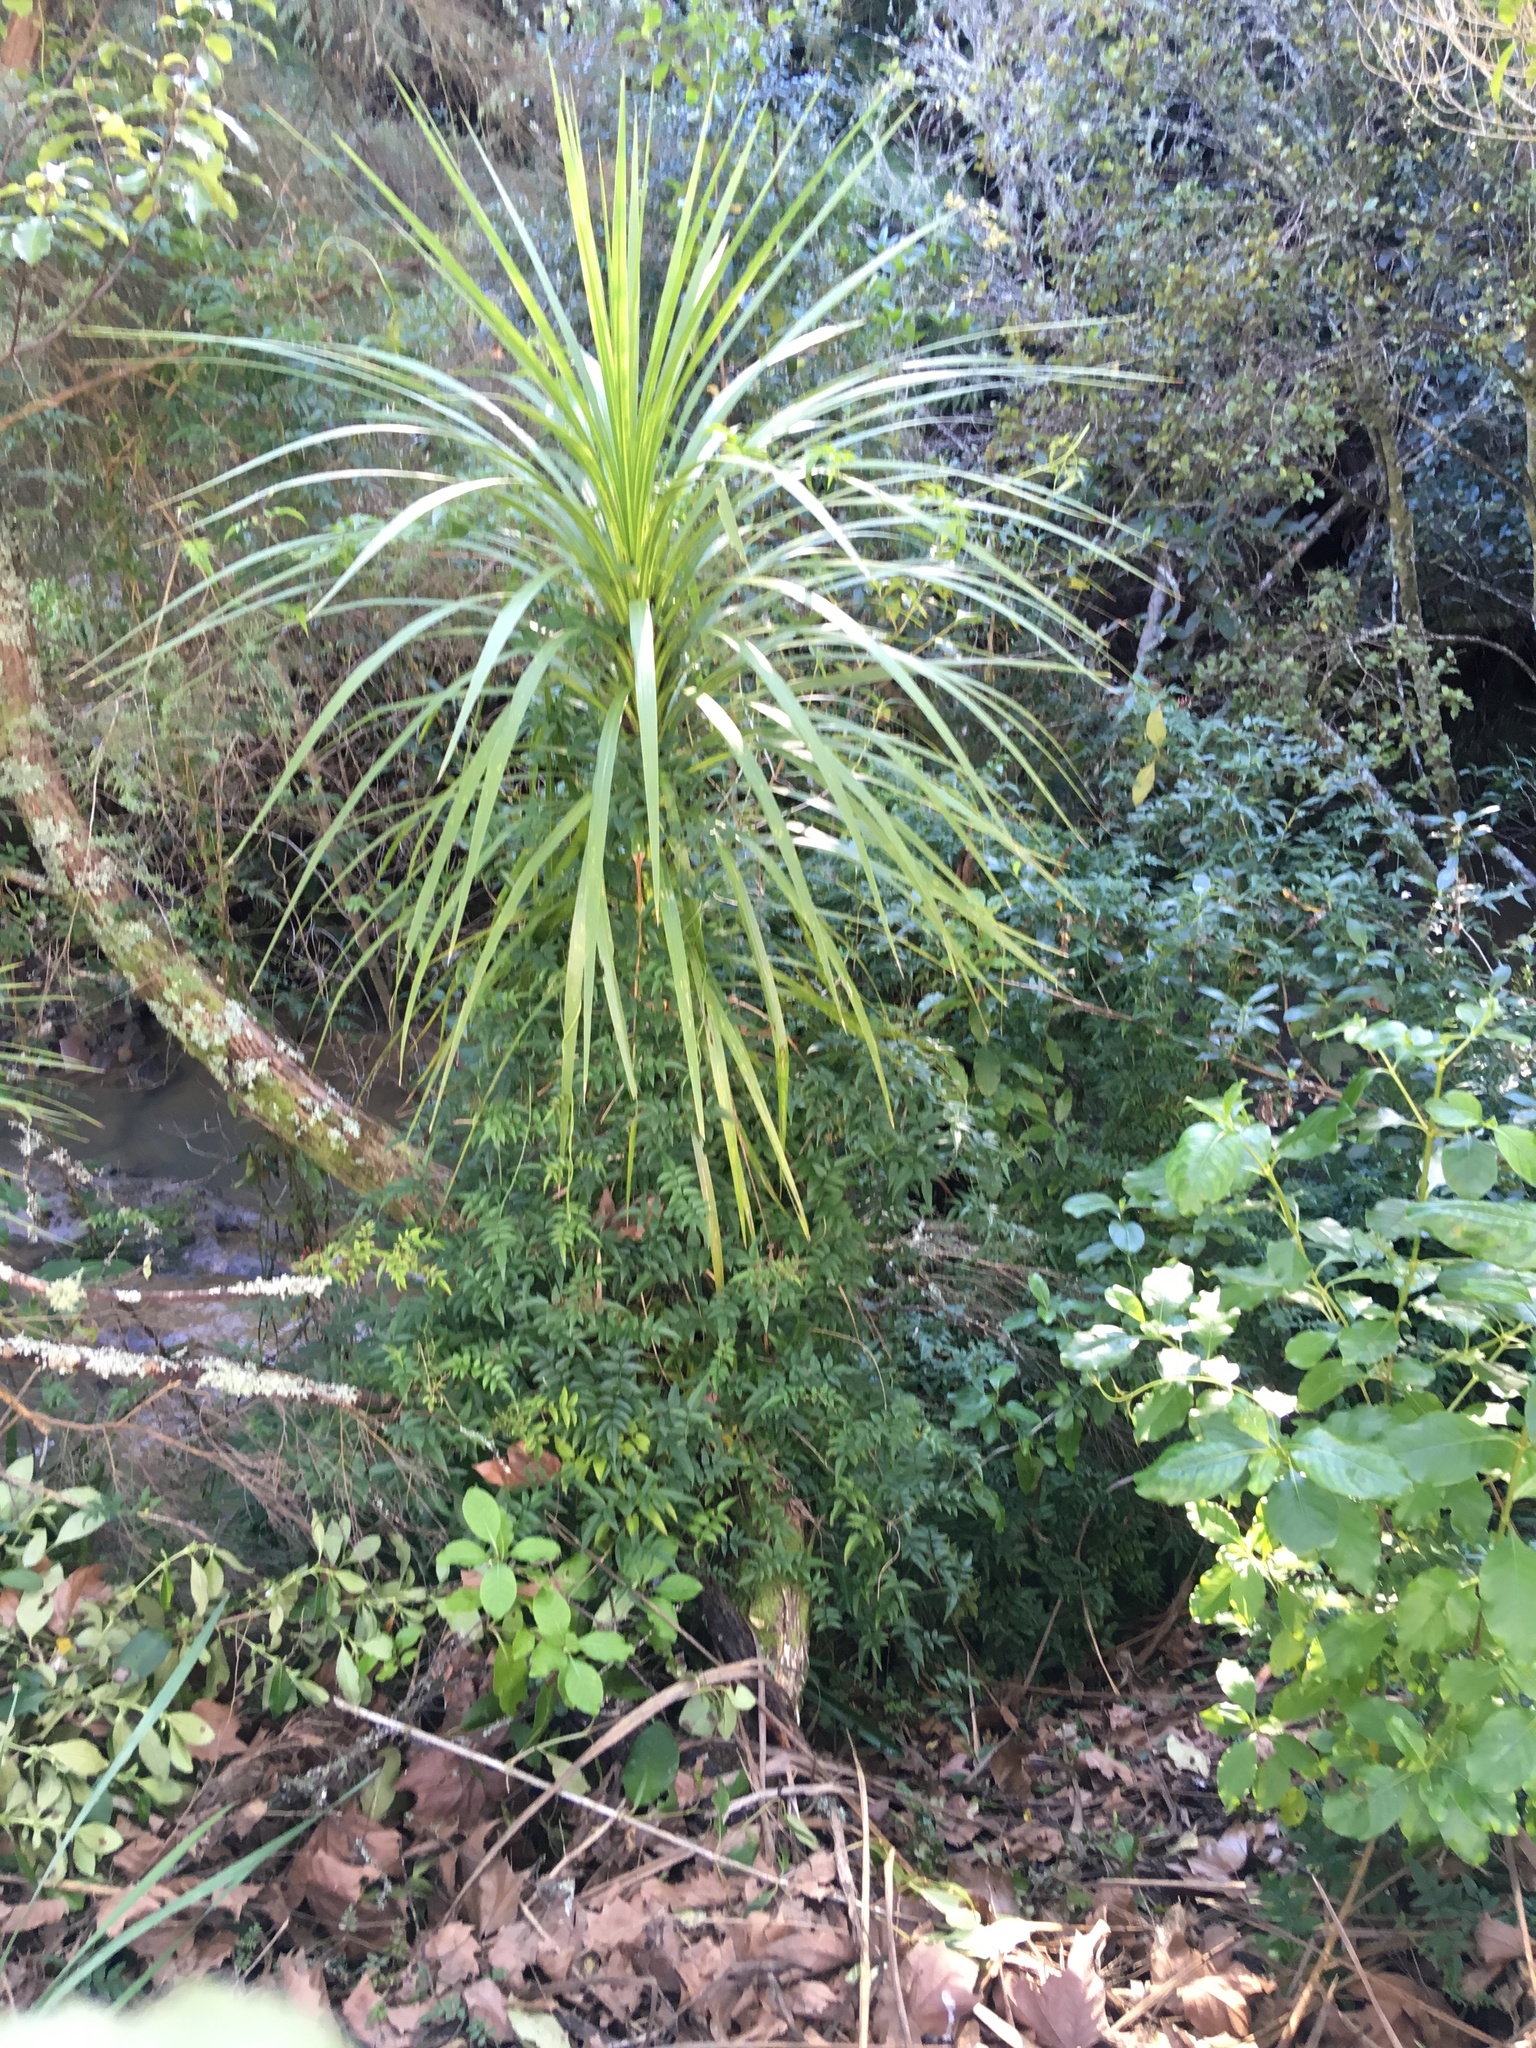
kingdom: Plantae
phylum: Tracheophyta
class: Magnoliopsida
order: Lamiales
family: Oleaceae
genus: Jasminum
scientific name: Jasminum polyanthum
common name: Pink jasmine
